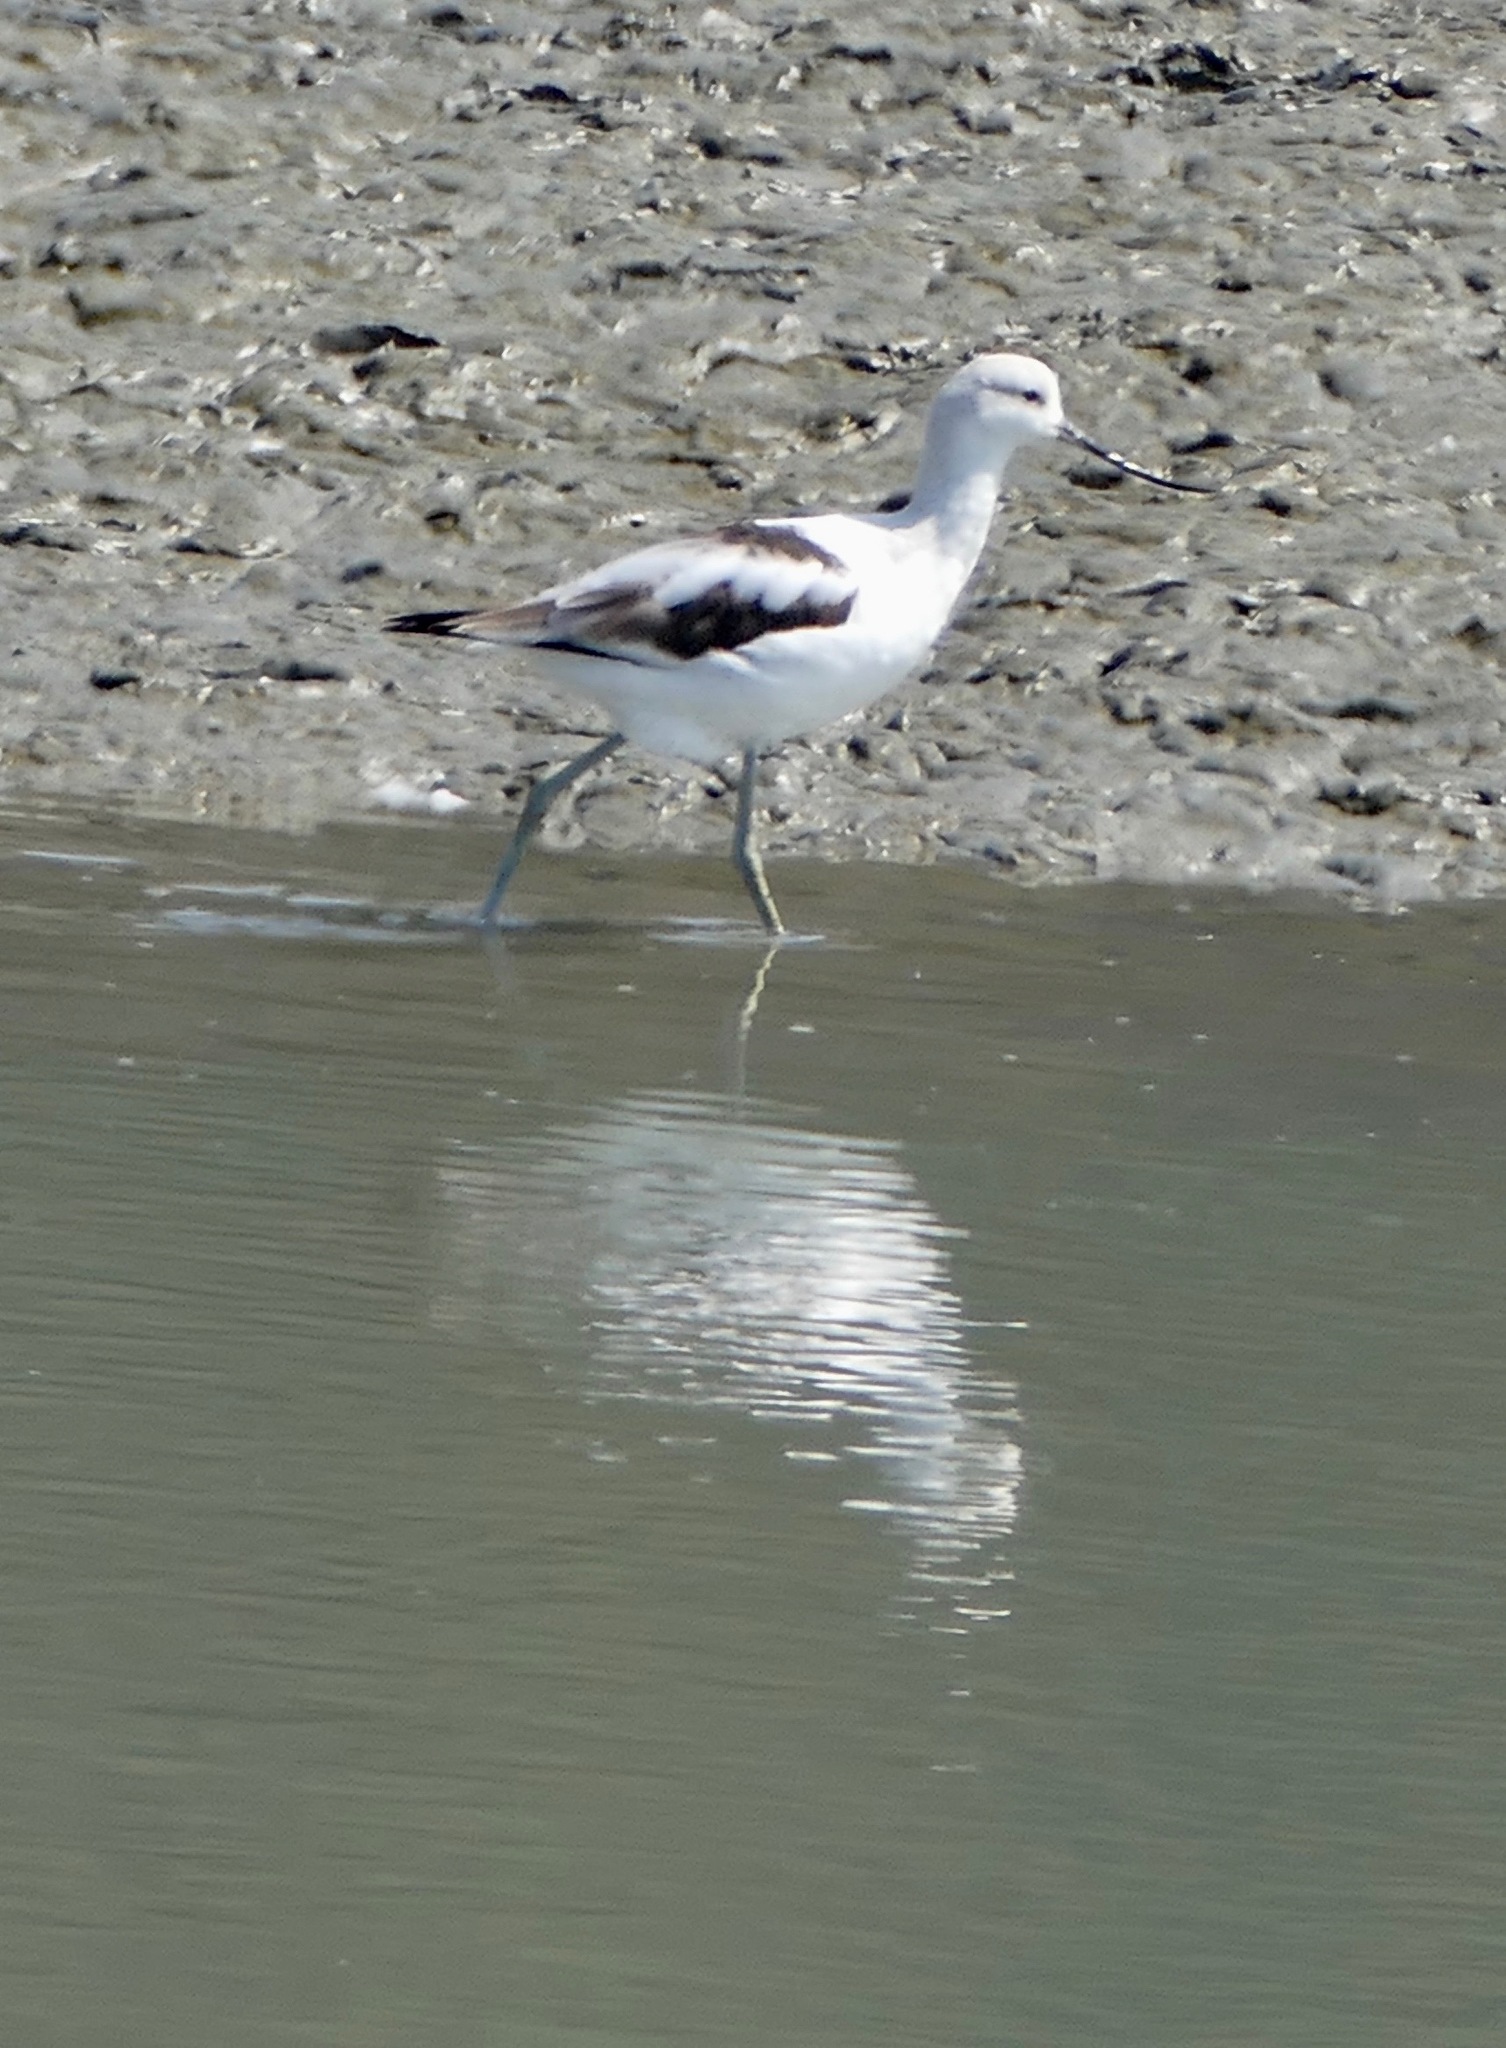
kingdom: Animalia
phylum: Chordata
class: Aves
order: Charadriiformes
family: Recurvirostridae
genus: Recurvirostra
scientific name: Recurvirostra americana
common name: American avocet
